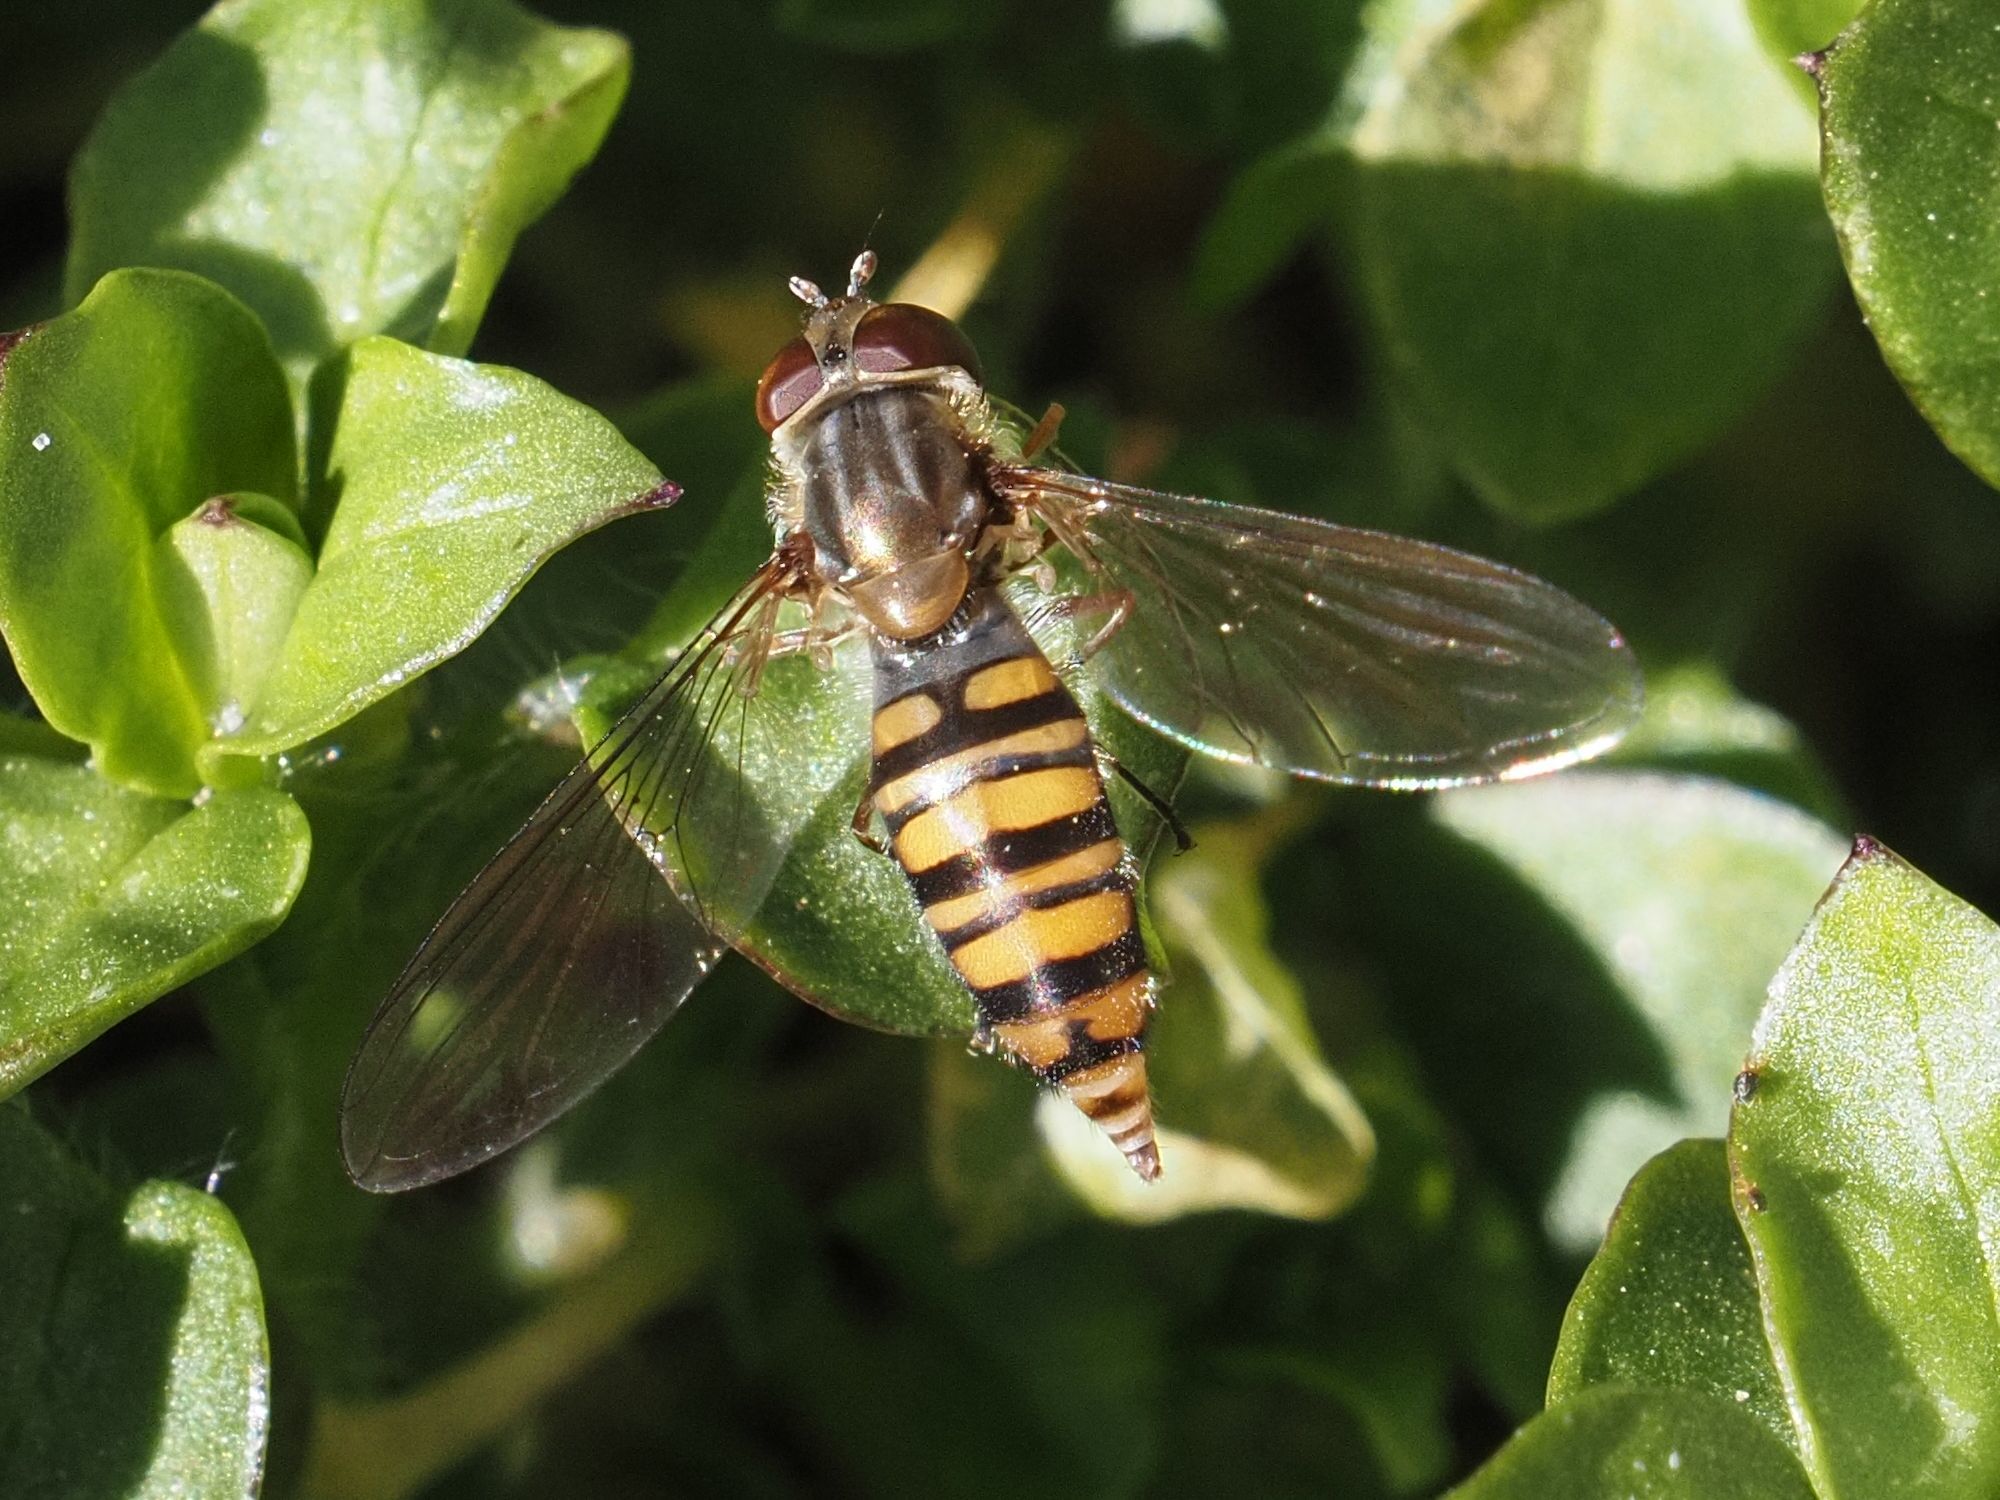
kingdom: Animalia
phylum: Arthropoda
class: Insecta
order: Diptera
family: Syrphidae
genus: Episyrphus
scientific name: Episyrphus balteatus
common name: Marmalade hoverfly
